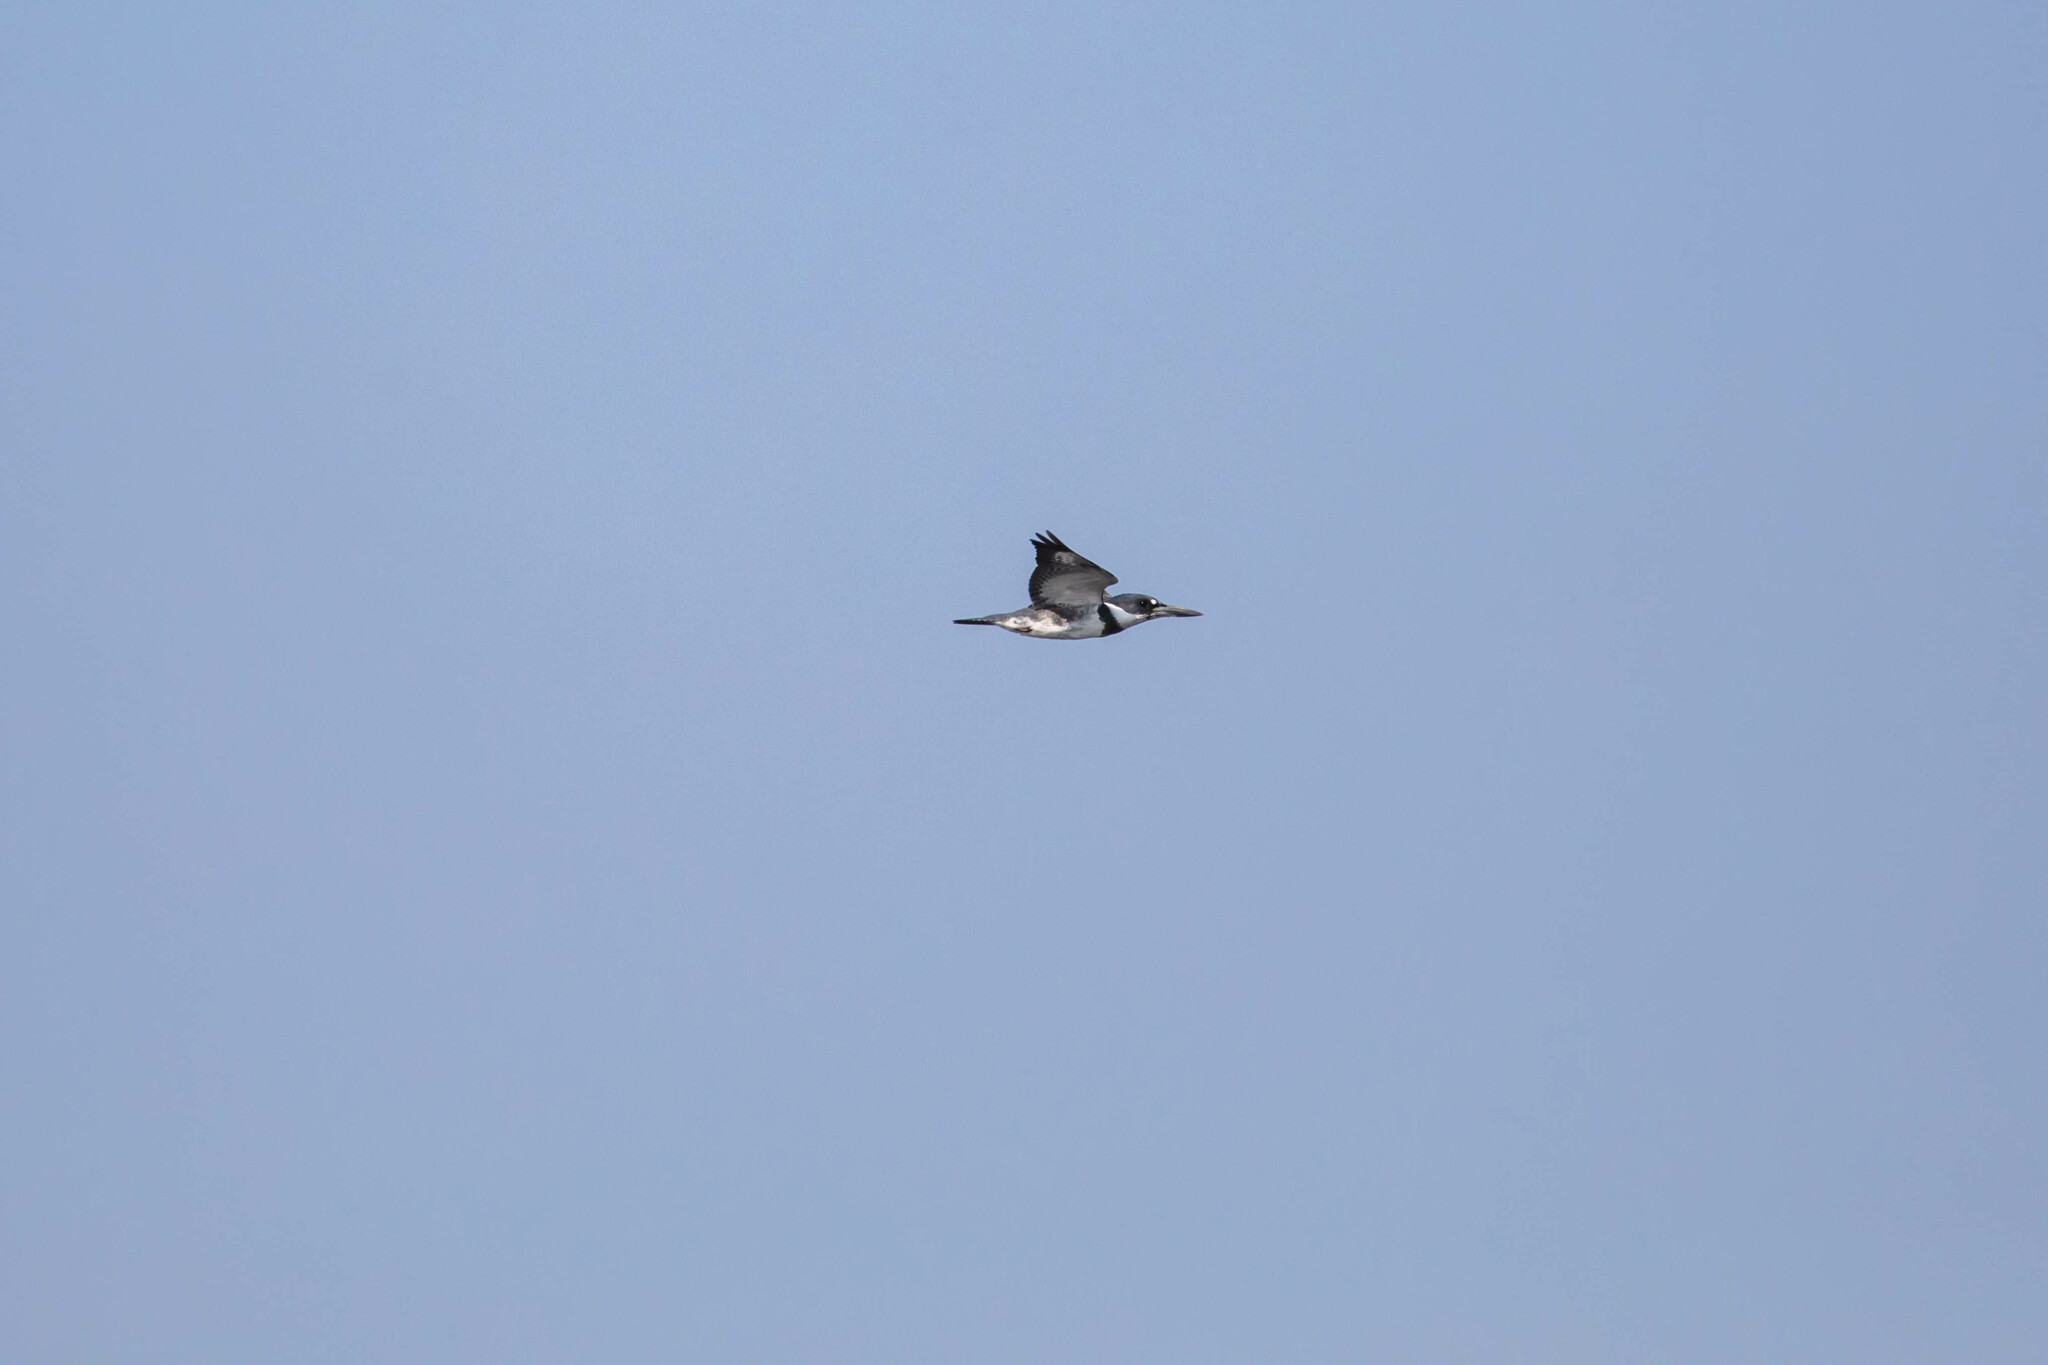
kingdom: Animalia
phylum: Chordata
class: Aves
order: Coraciiformes
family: Alcedinidae
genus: Megaceryle
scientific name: Megaceryle alcyon
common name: Belted kingfisher
